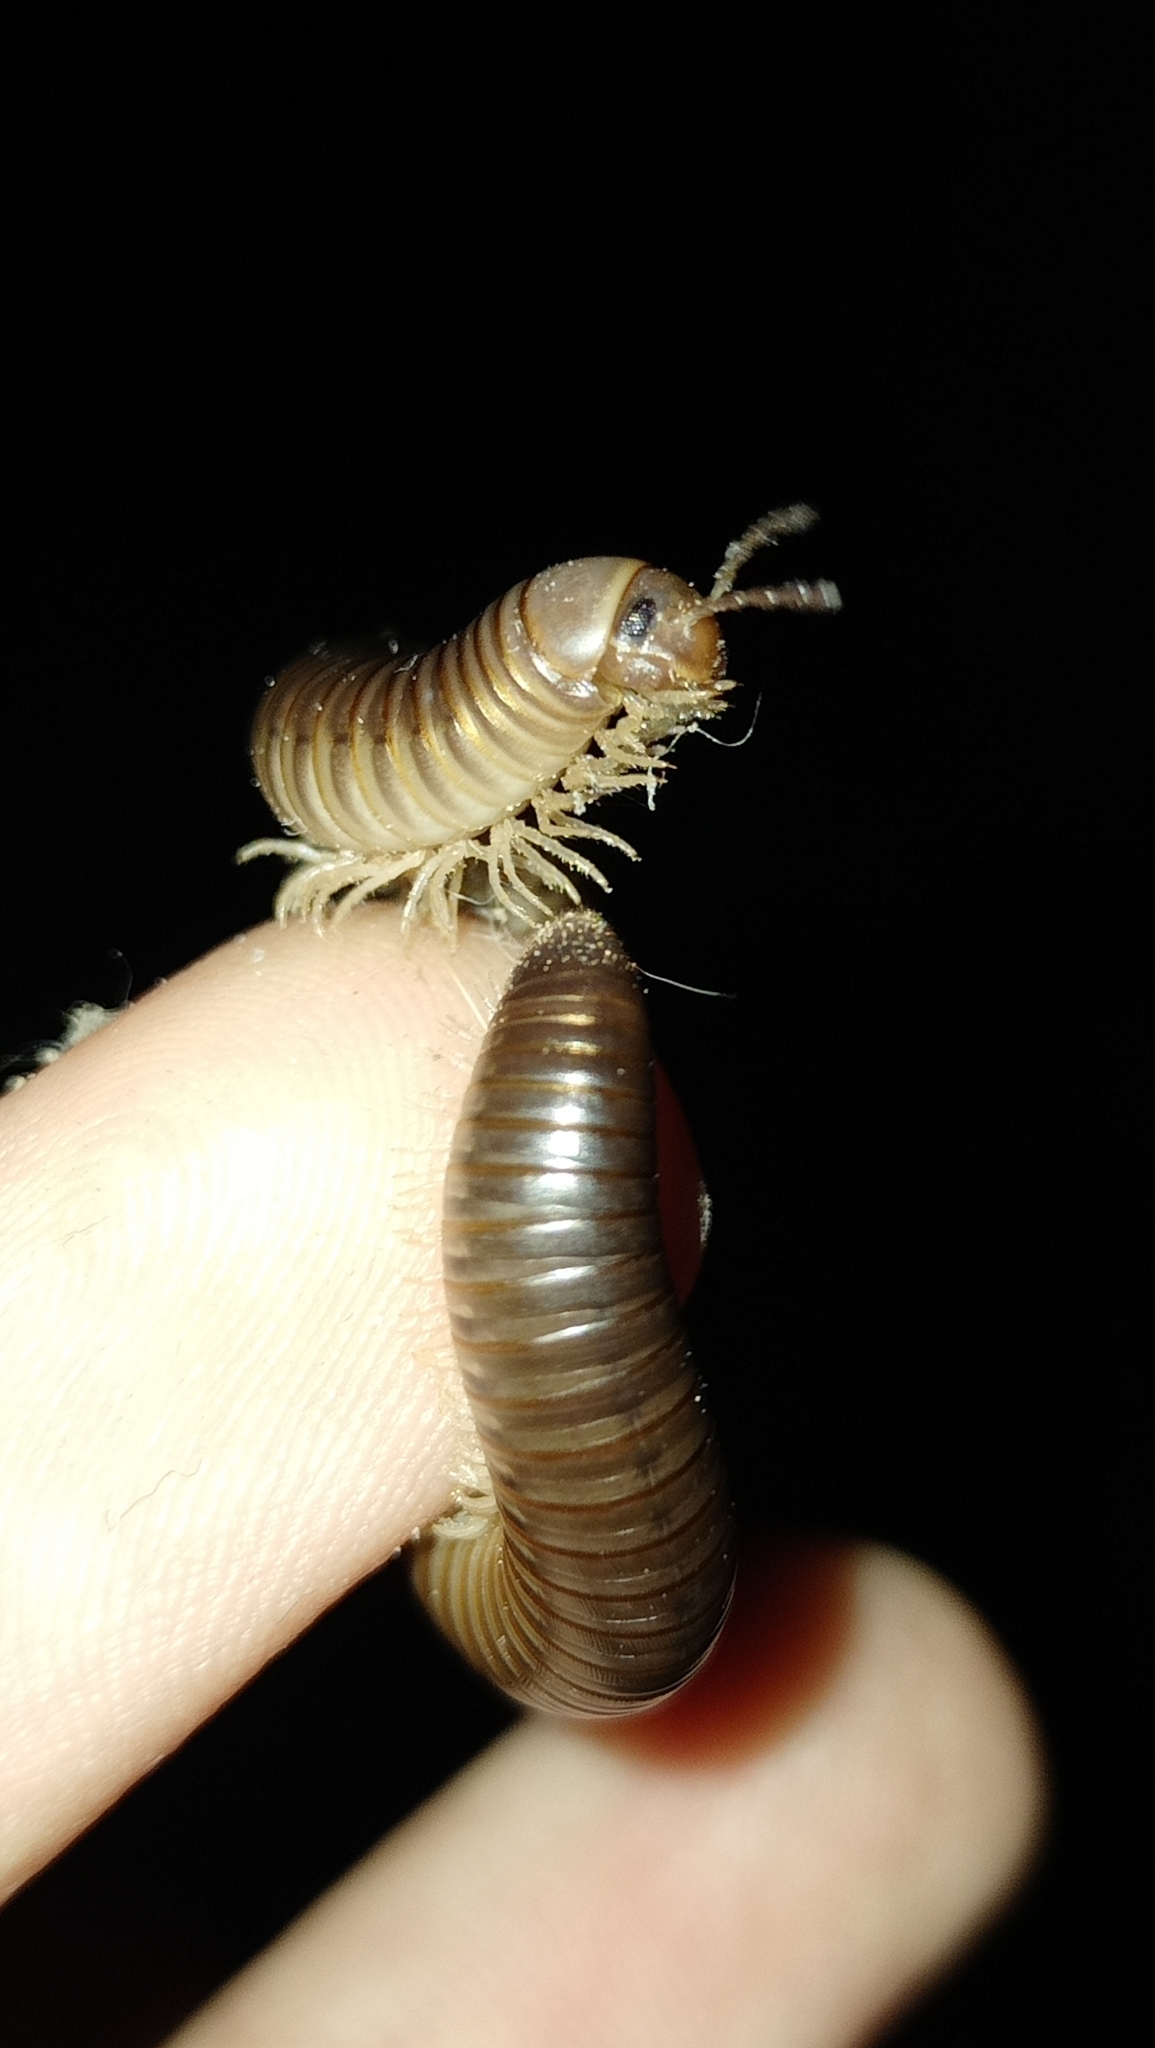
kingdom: Animalia
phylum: Arthropoda
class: Diplopoda
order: Julida
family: Julidae
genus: Pachyiulus
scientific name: Pachyiulus flavipes
